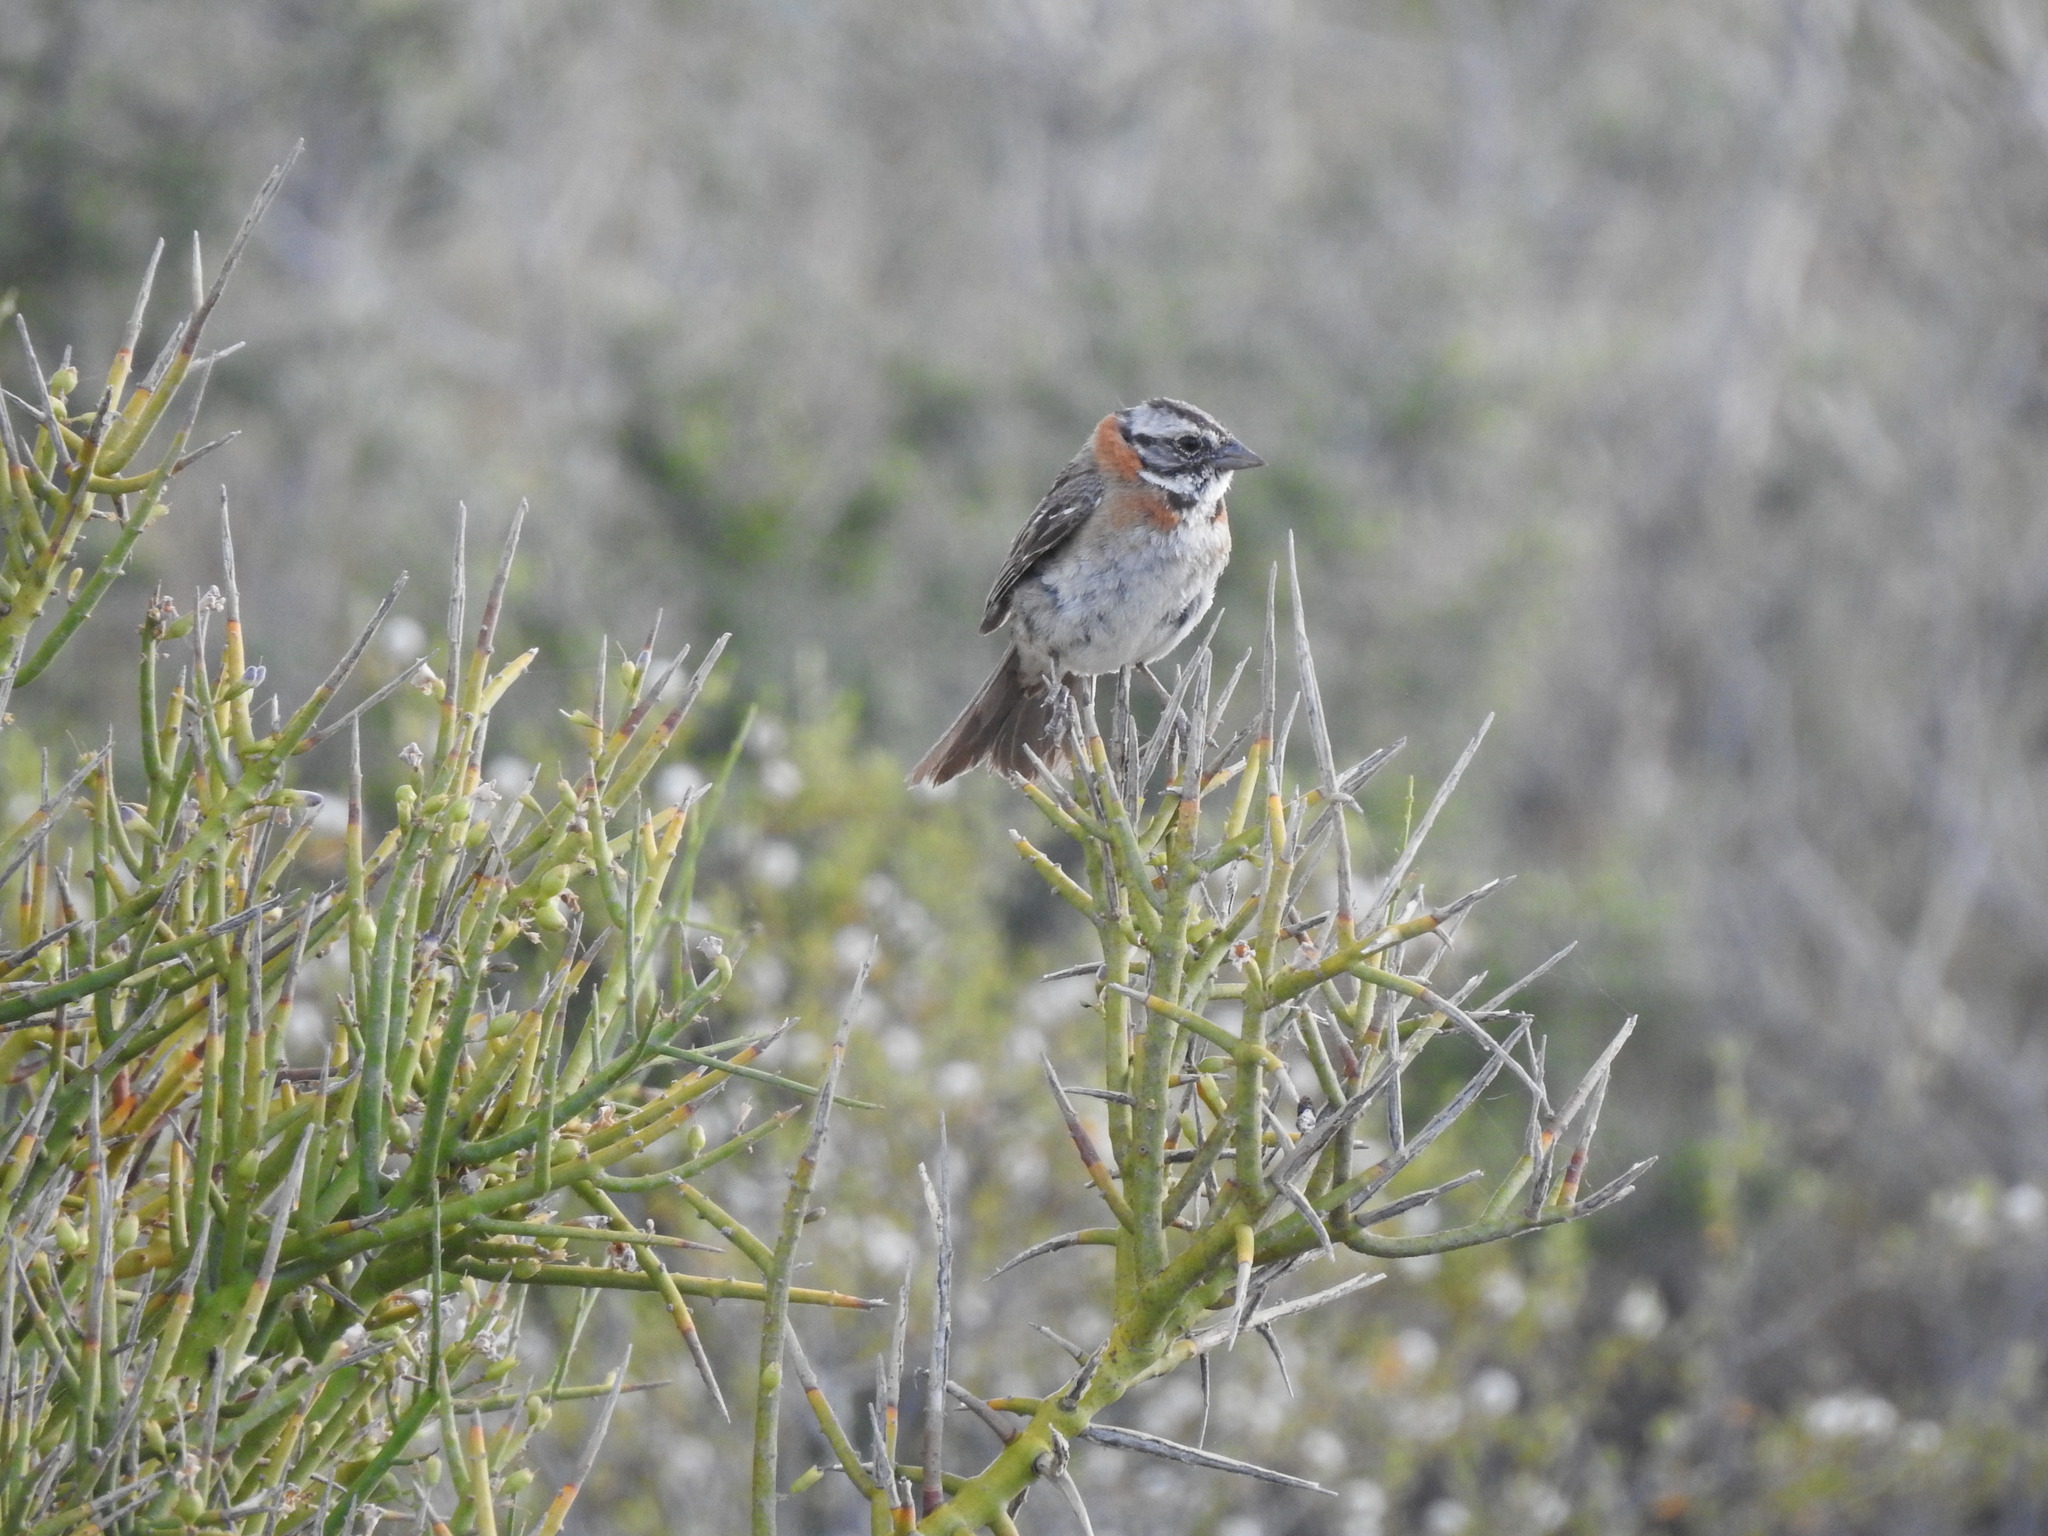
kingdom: Animalia
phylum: Chordata
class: Aves
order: Passeriformes
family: Passerellidae
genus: Zonotrichia
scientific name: Zonotrichia capensis
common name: Rufous-collared sparrow
